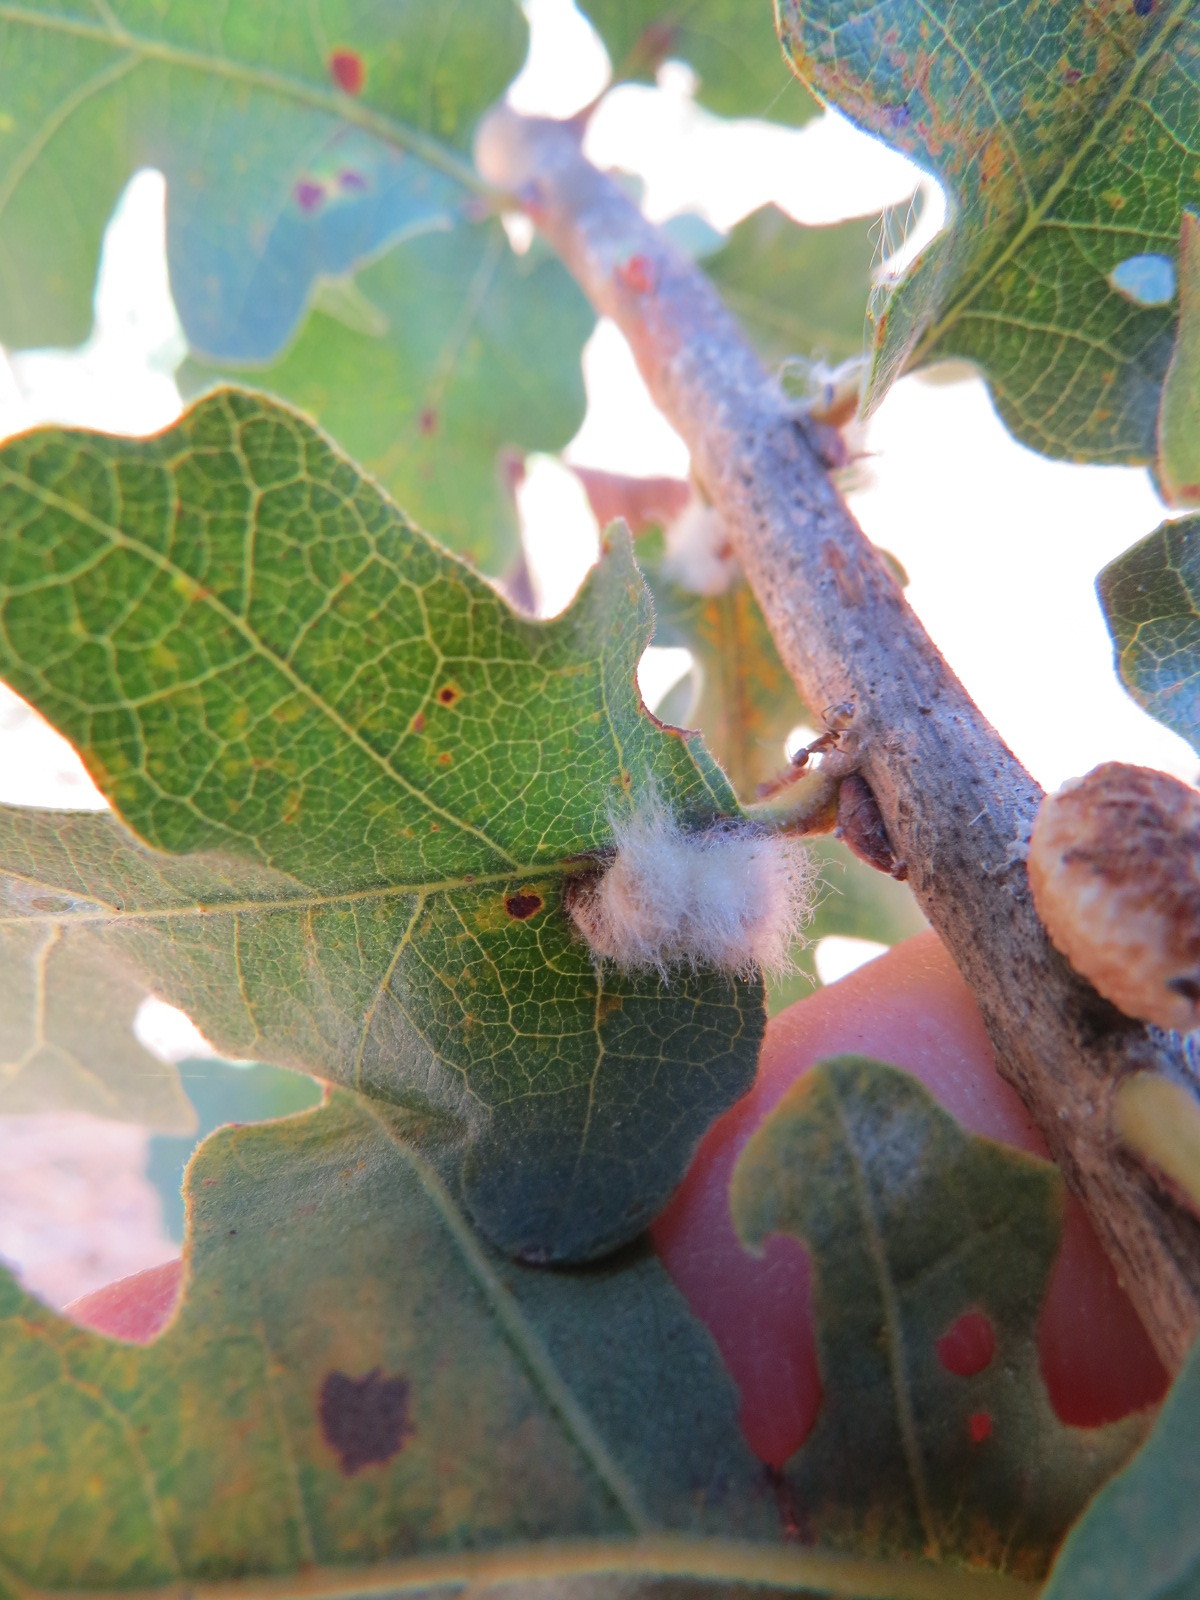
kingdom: Animalia
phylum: Arthropoda
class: Insecta
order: Hymenoptera
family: Cynipidae
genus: Andricus
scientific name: Andricus Druon fullawayi
